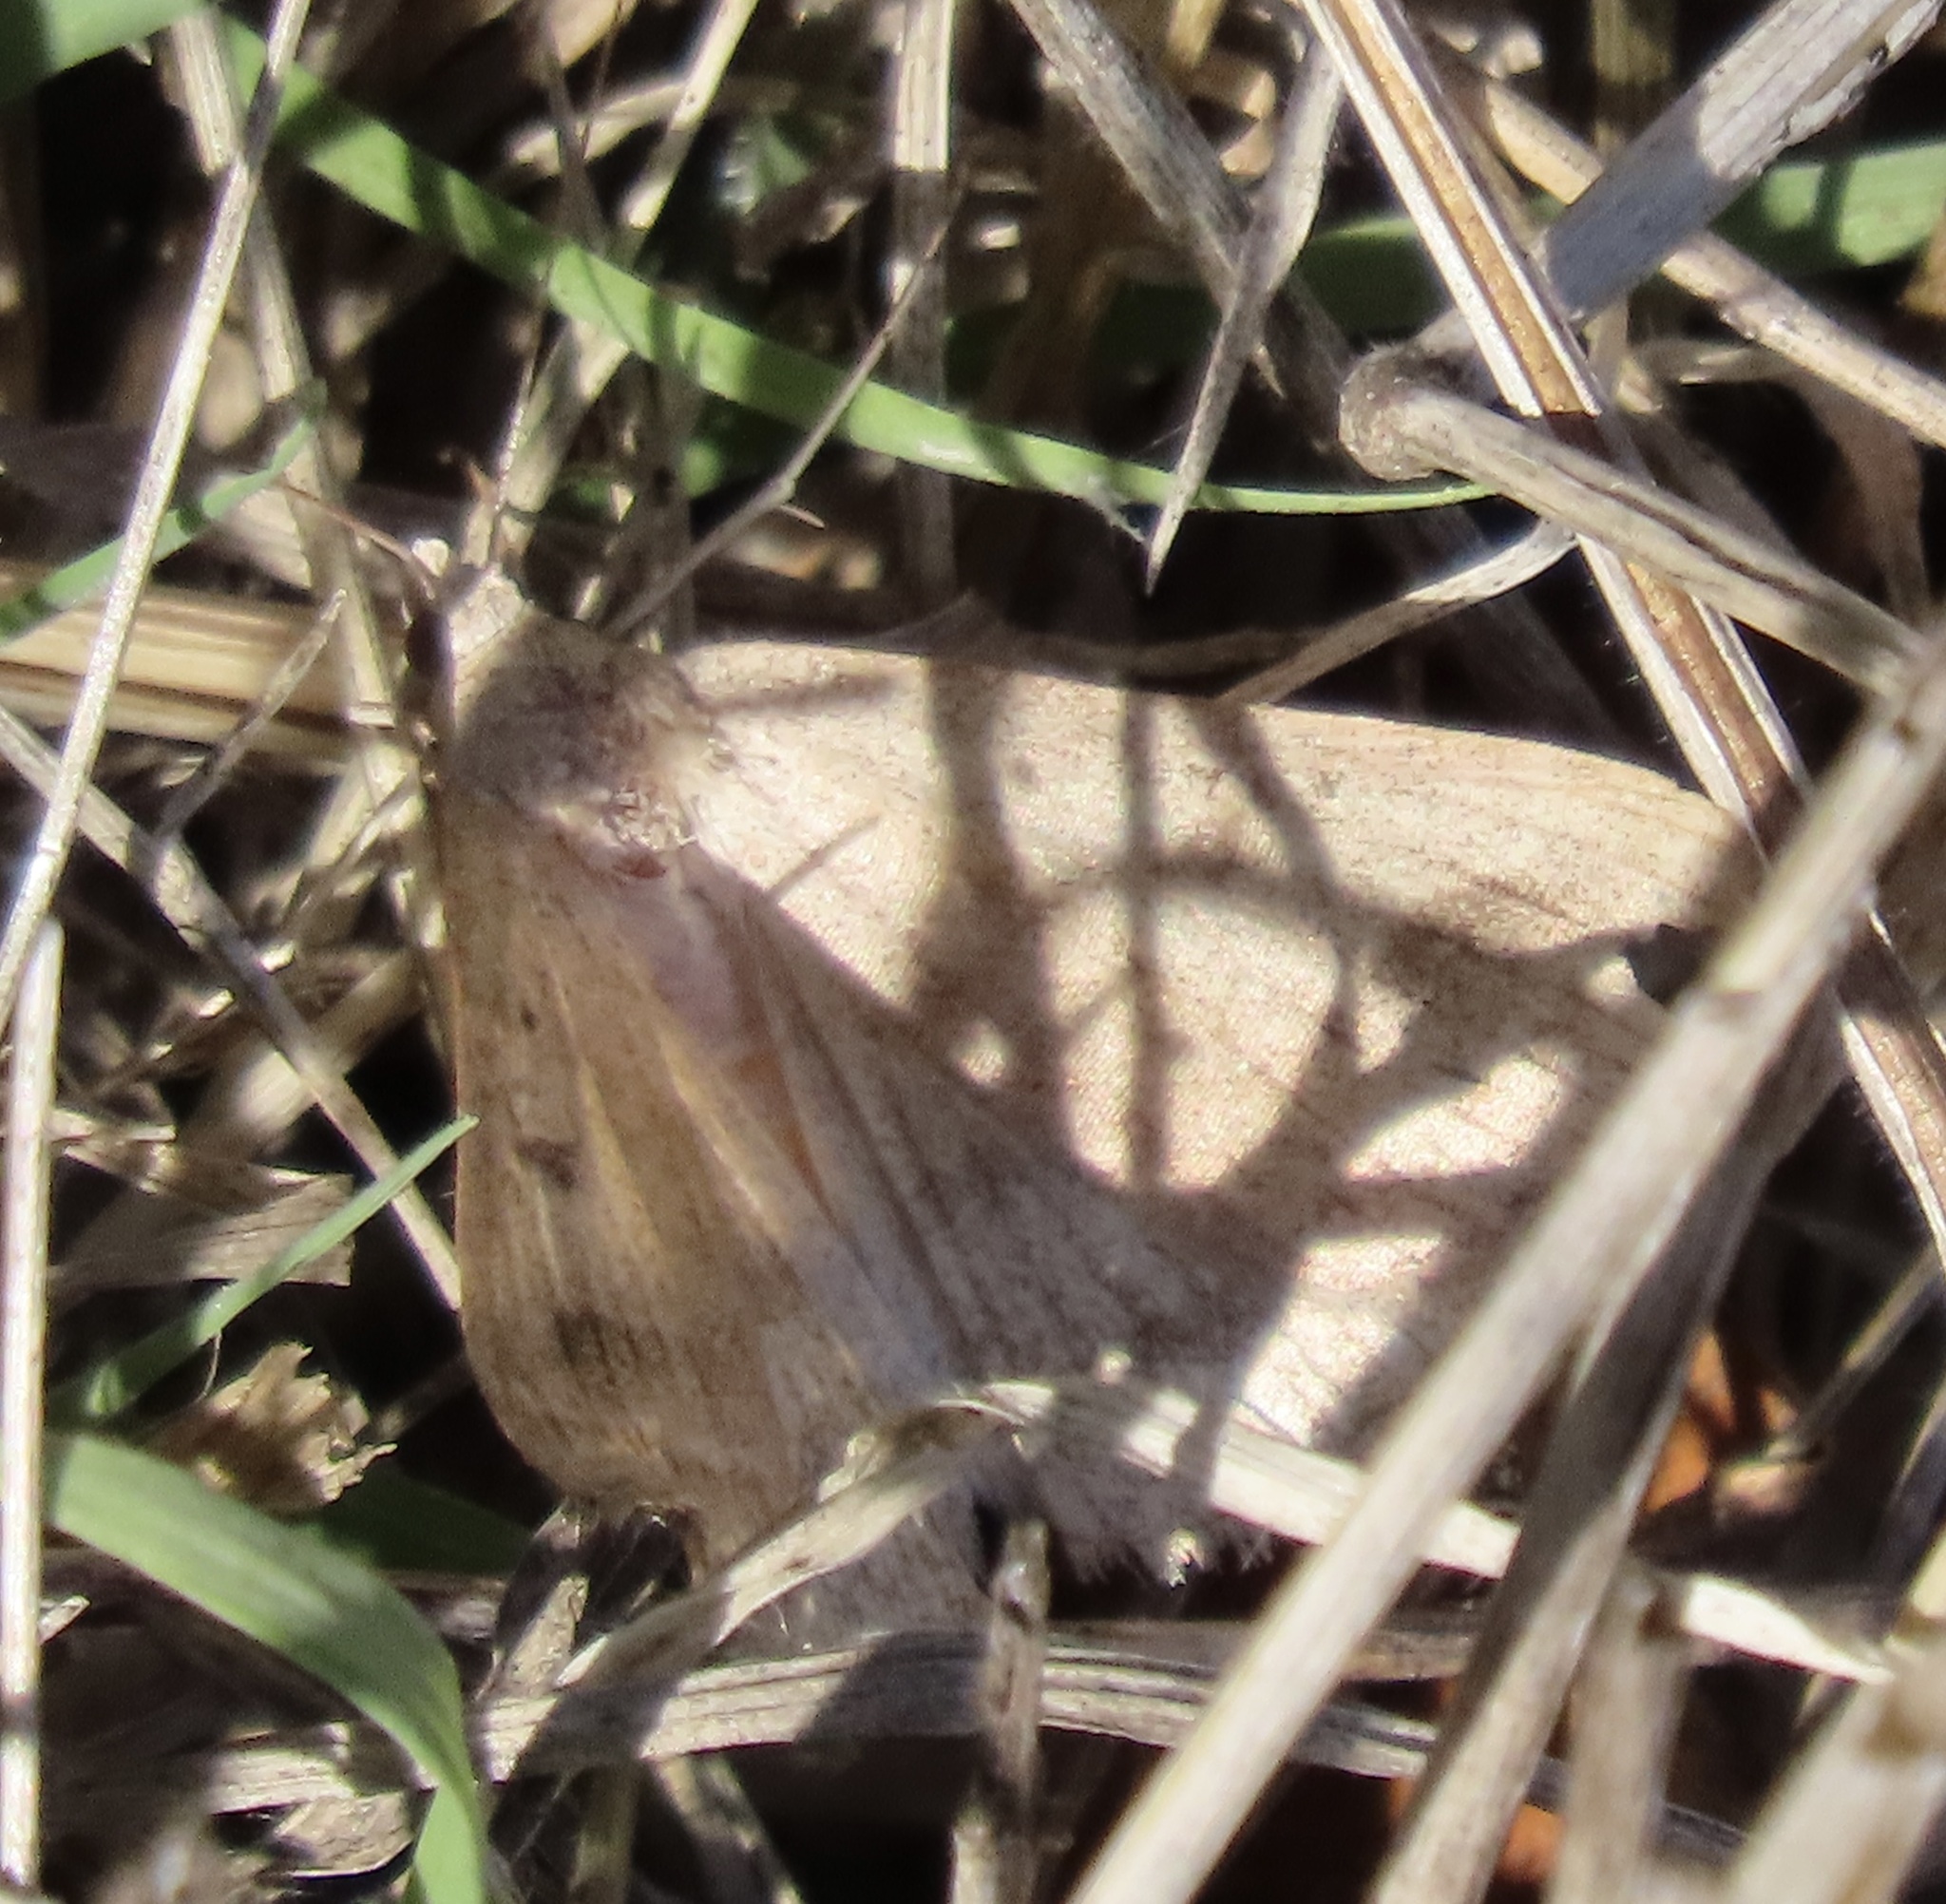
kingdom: Animalia
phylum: Arthropoda
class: Insecta
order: Lepidoptera
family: Erebidae
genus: Caenurgia
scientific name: Caenurgia togataria
